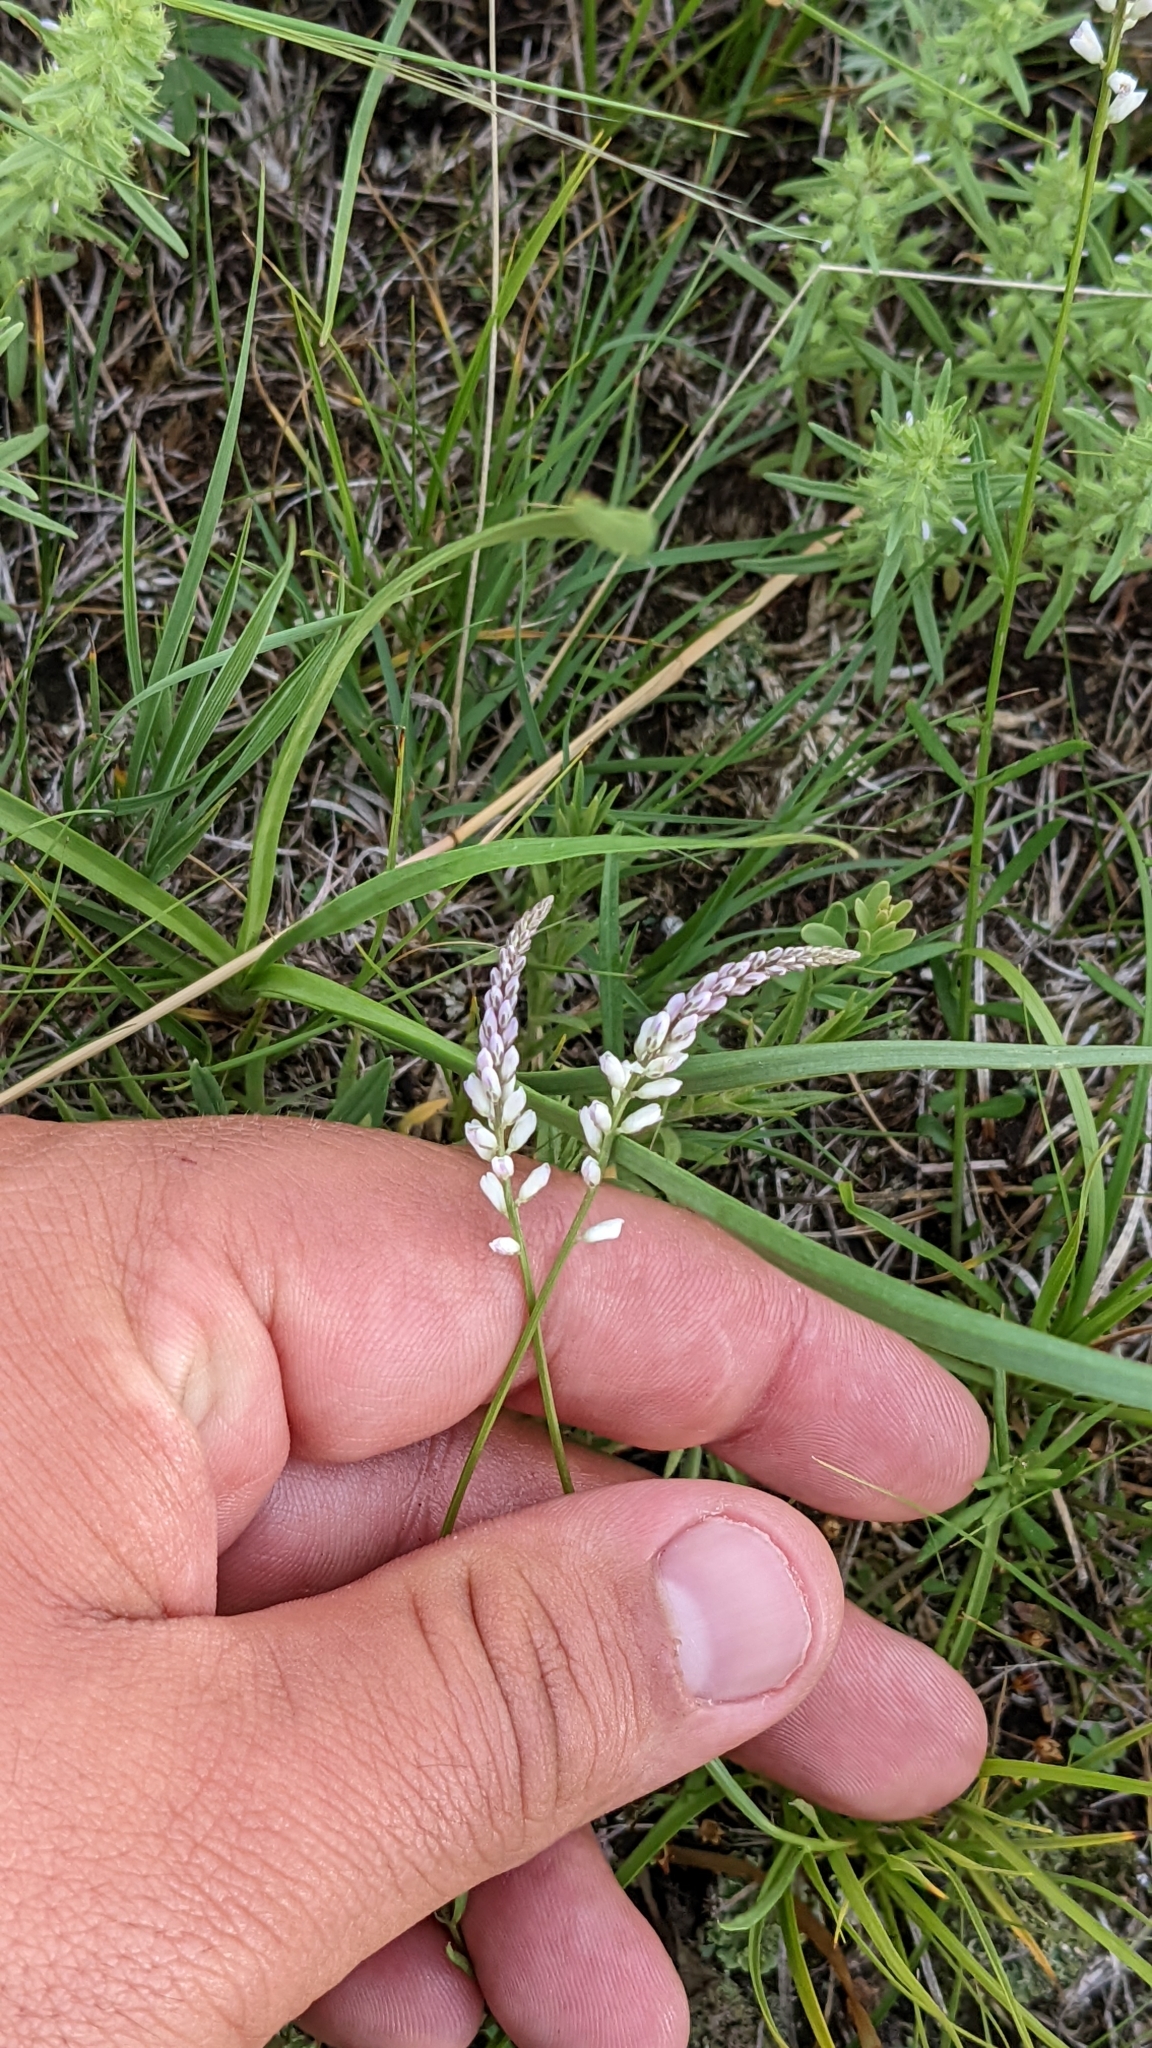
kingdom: Plantae
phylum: Tracheophyta
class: Magnoliopsida
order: Fabales
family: Polygalaceae
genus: Polygala
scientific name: Polygala alba
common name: White milkwort
